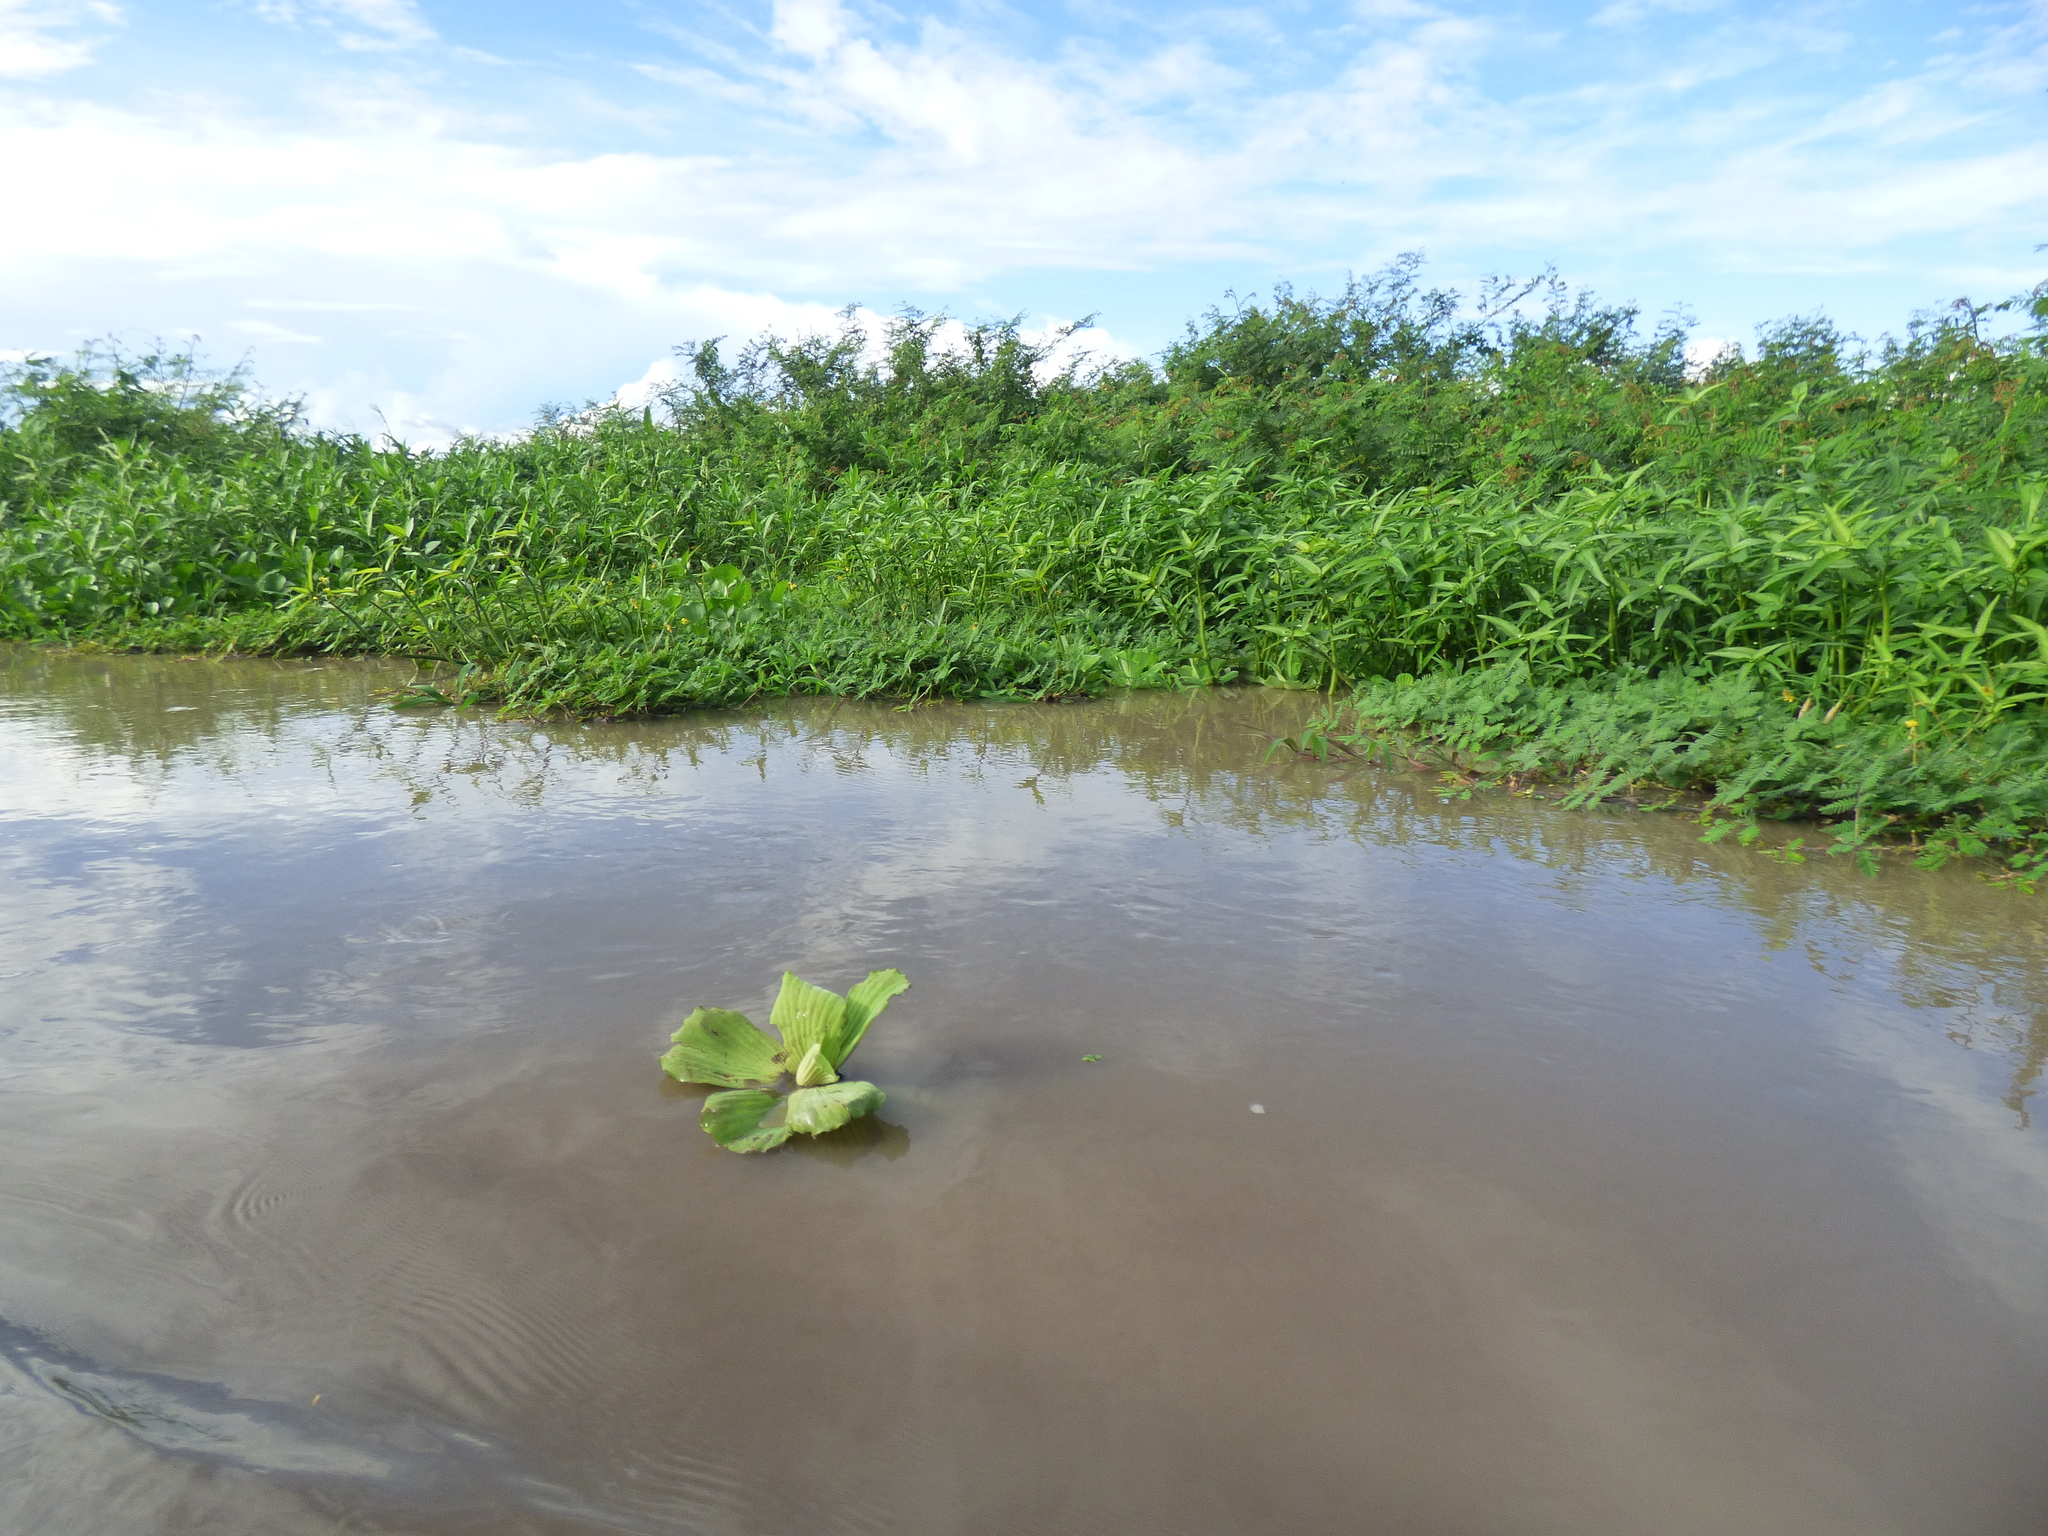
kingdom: Plantae
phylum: Tracheophyta
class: Liliopsida
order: Alismatales
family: Araceae
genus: Pistia
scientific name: Pistia stratiotes
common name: Water lettuce
